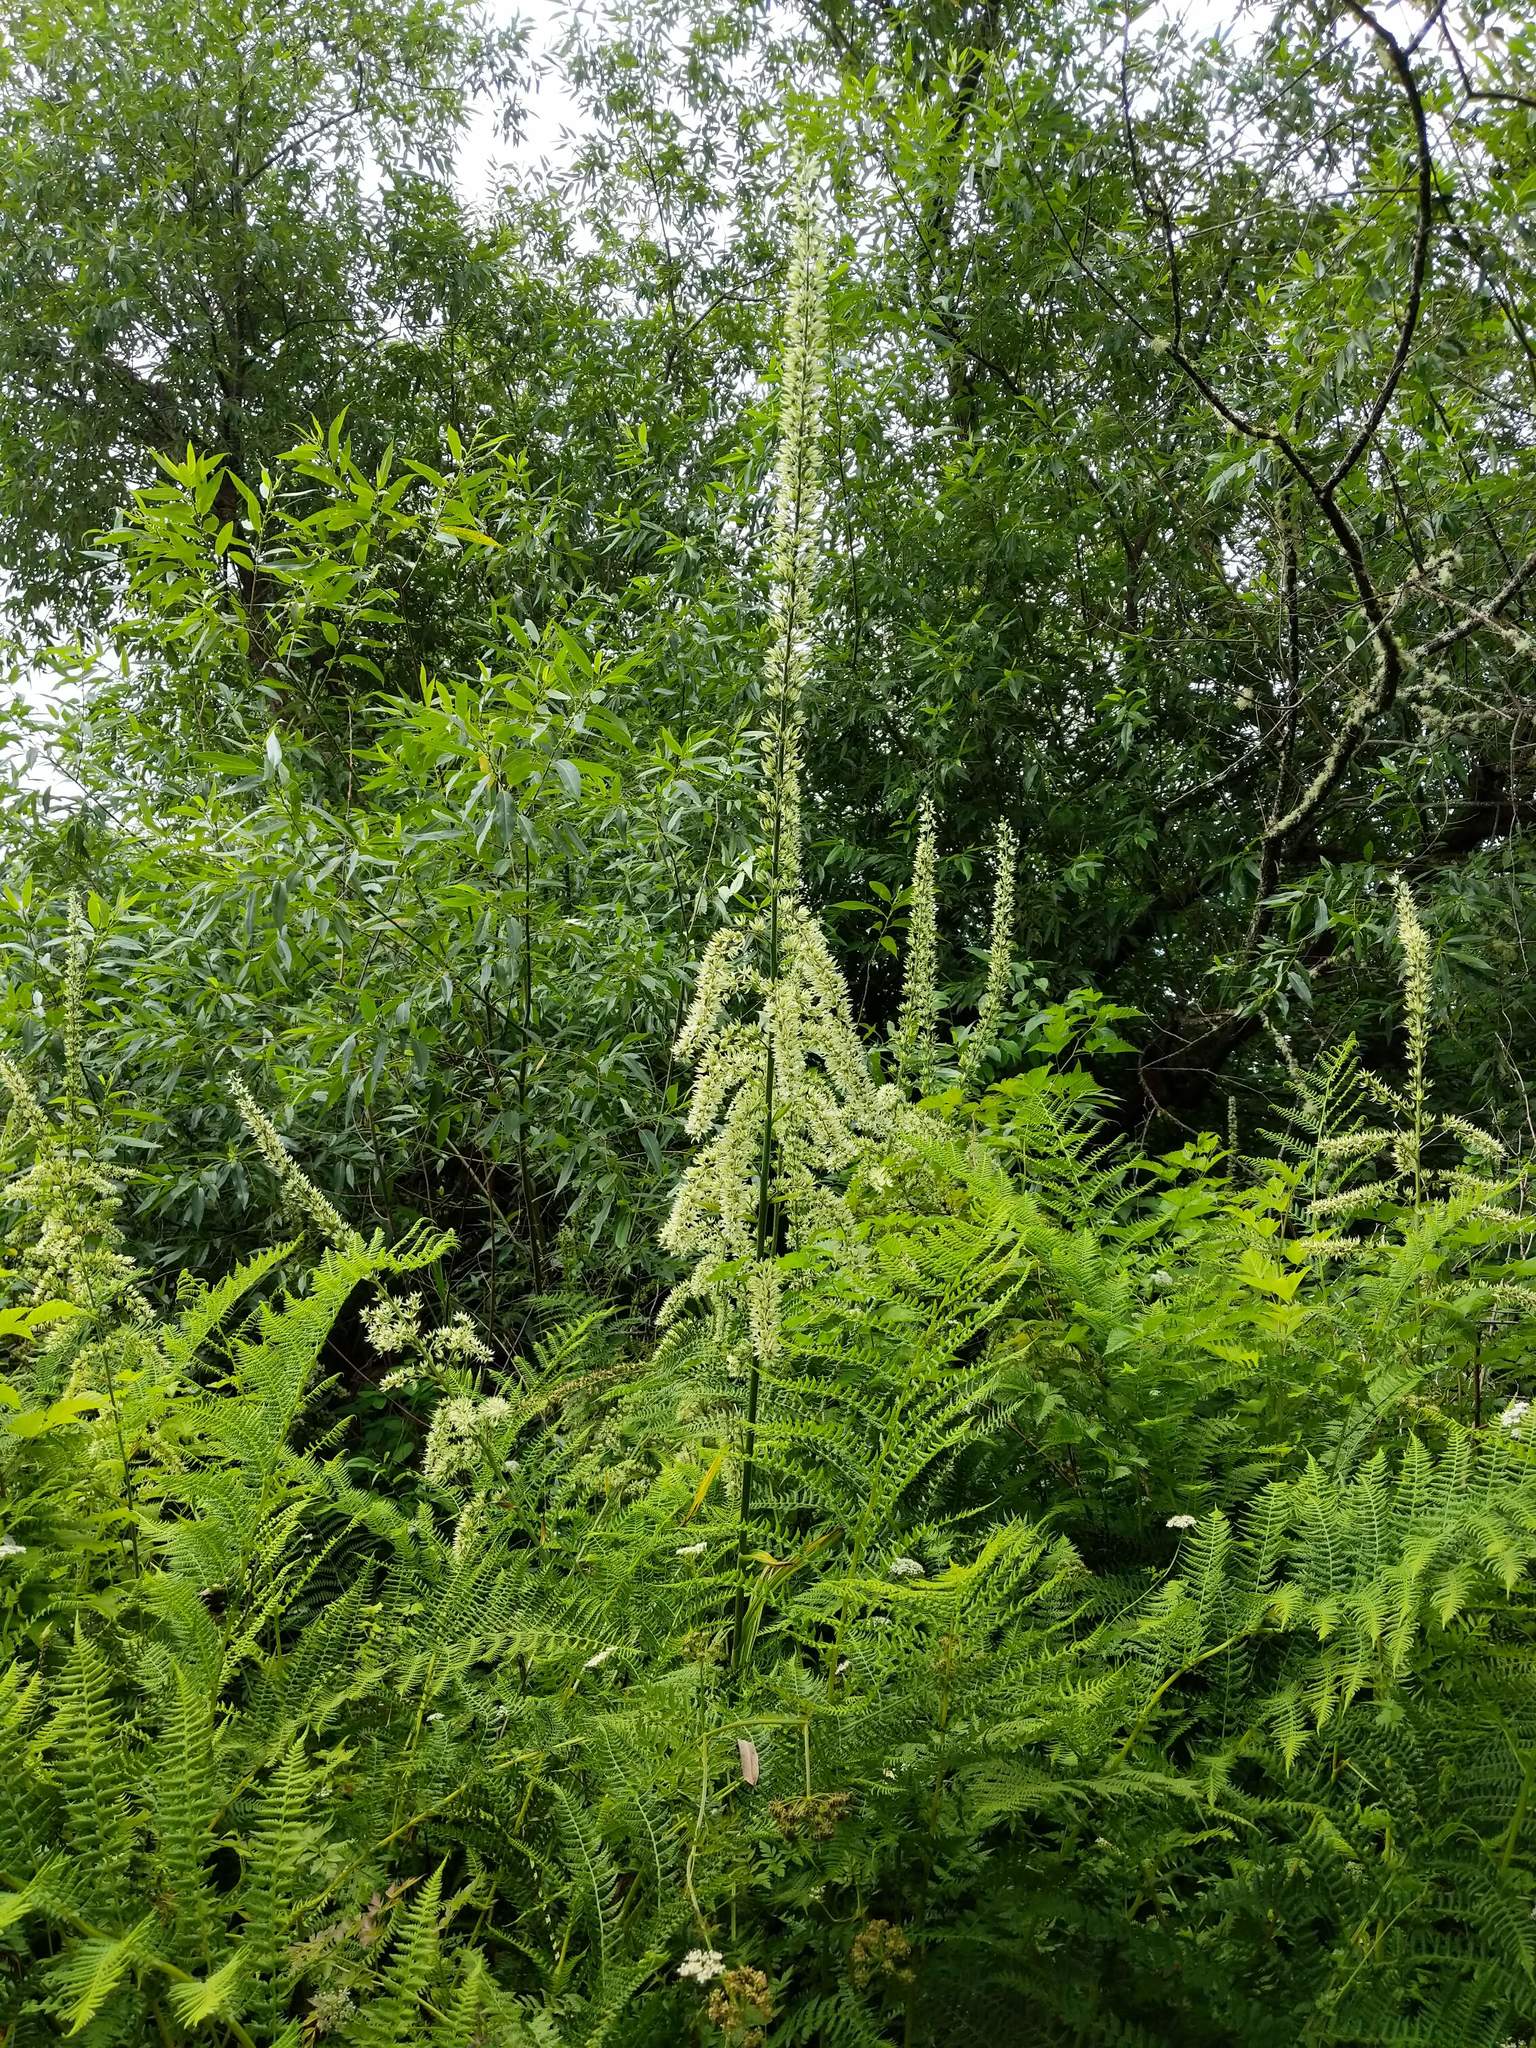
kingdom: Plantae
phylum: Tracheophyta
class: Liliopsida
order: Liliales
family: Melanthiaceae
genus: Veratrum
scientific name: Veratrum californicum
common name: California veratrum
